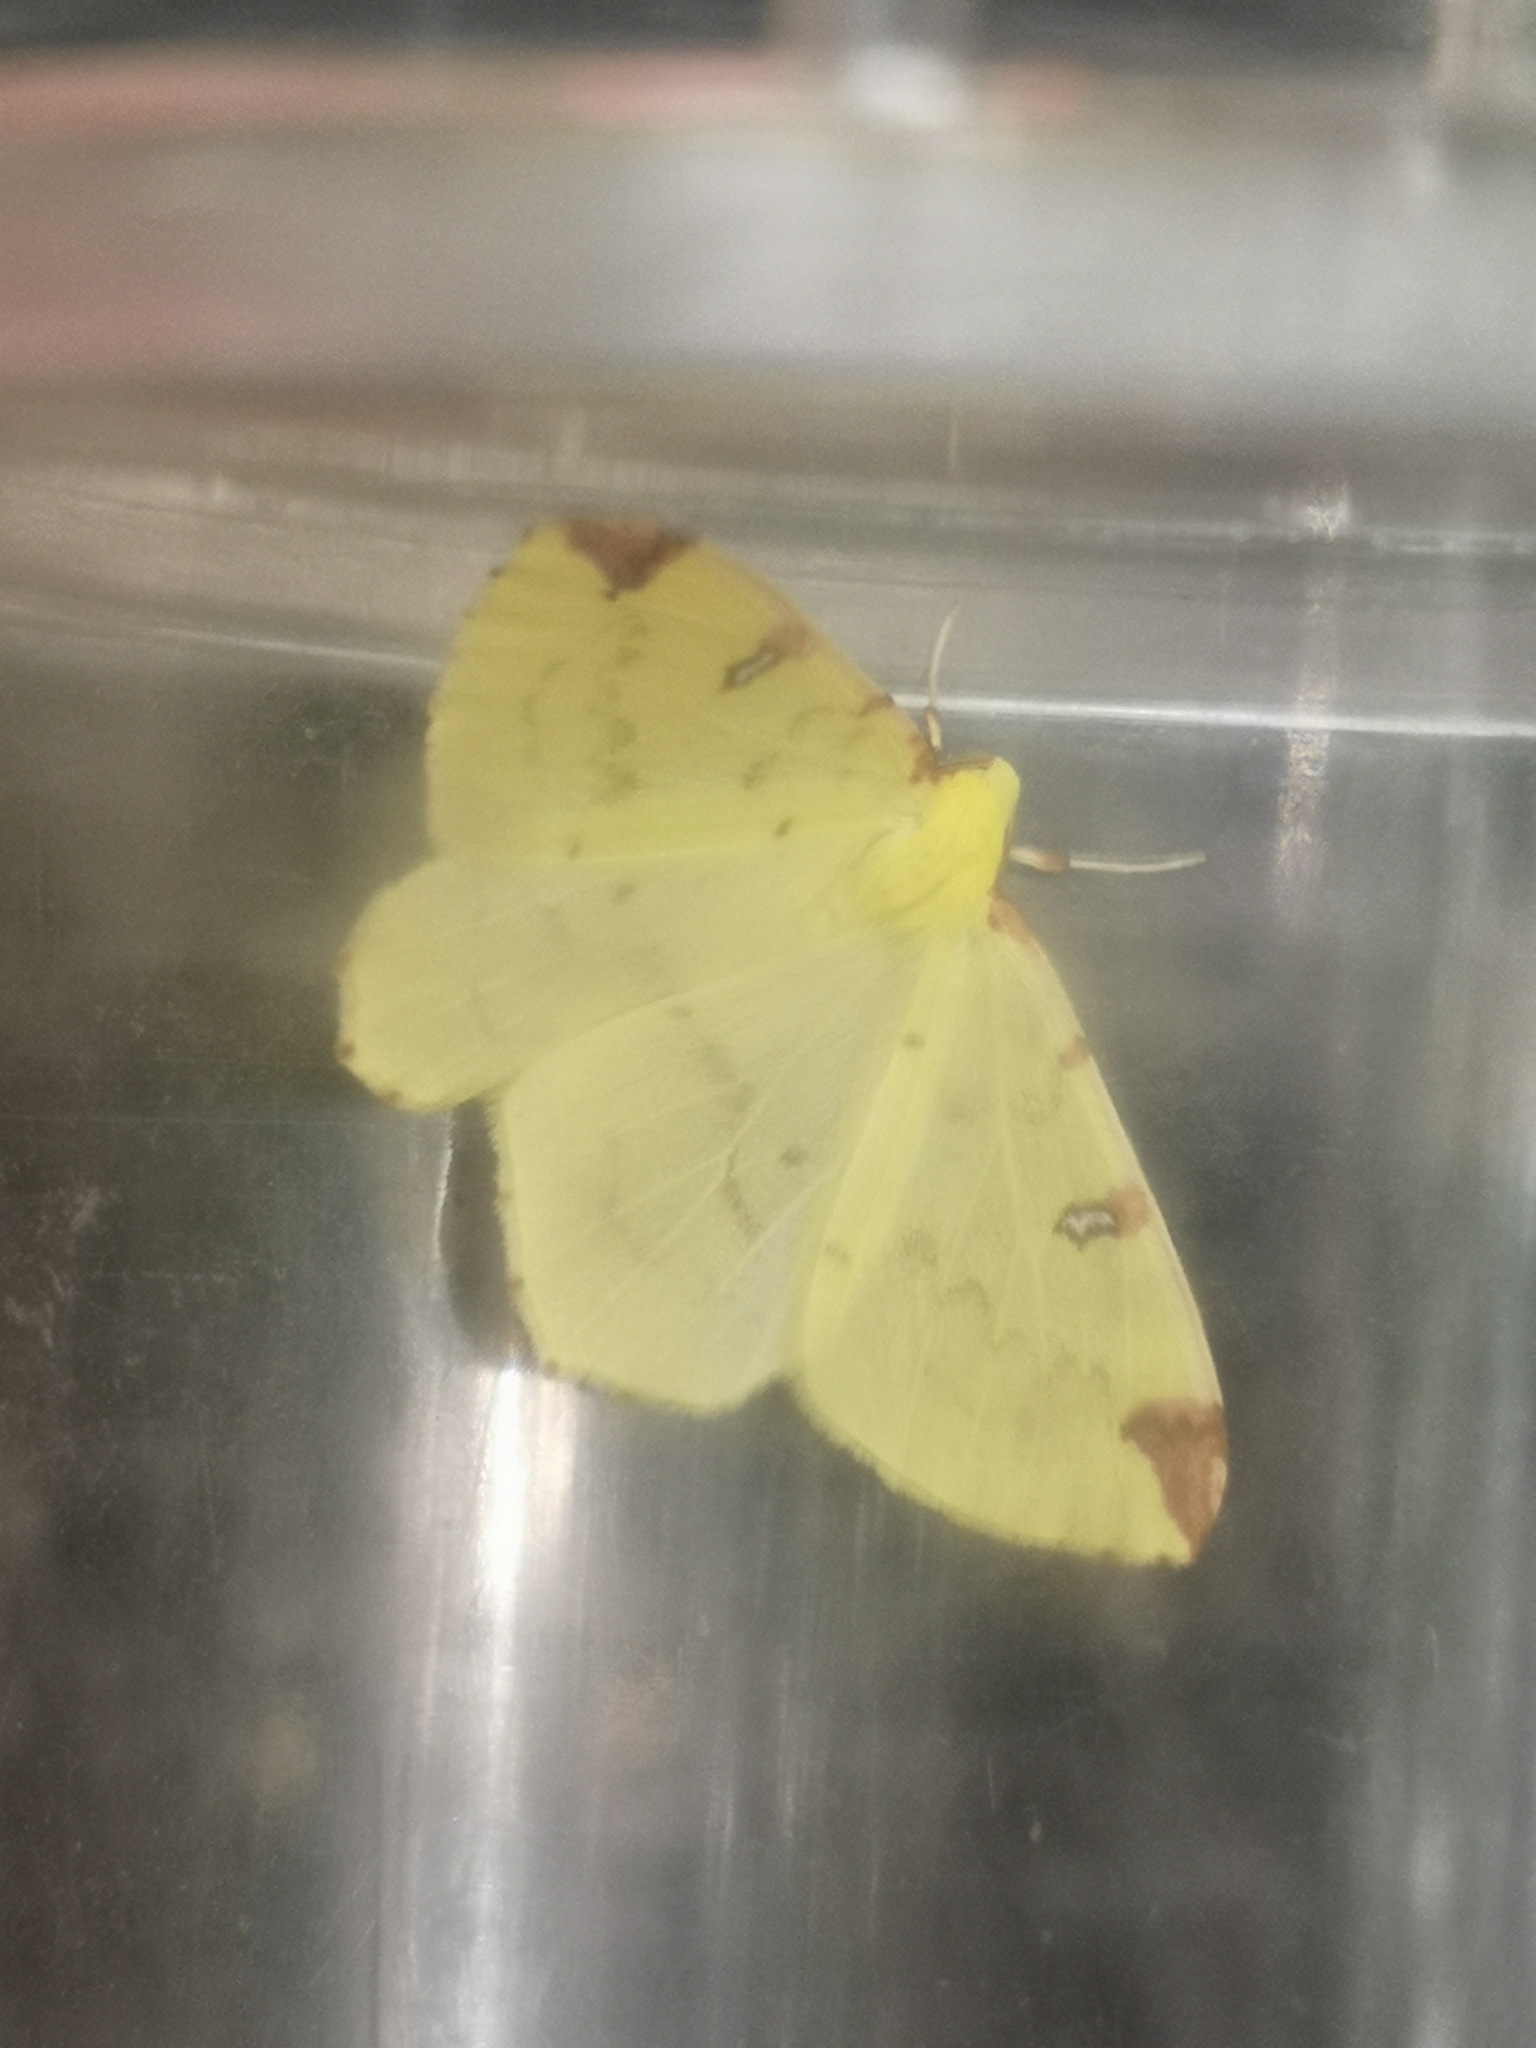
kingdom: Animalia
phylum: Arthropoda
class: Insecta
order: Lepidoptera
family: Geometridae
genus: Opisthograptis
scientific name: Opisthograptis luteolata
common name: Brimstone moth
